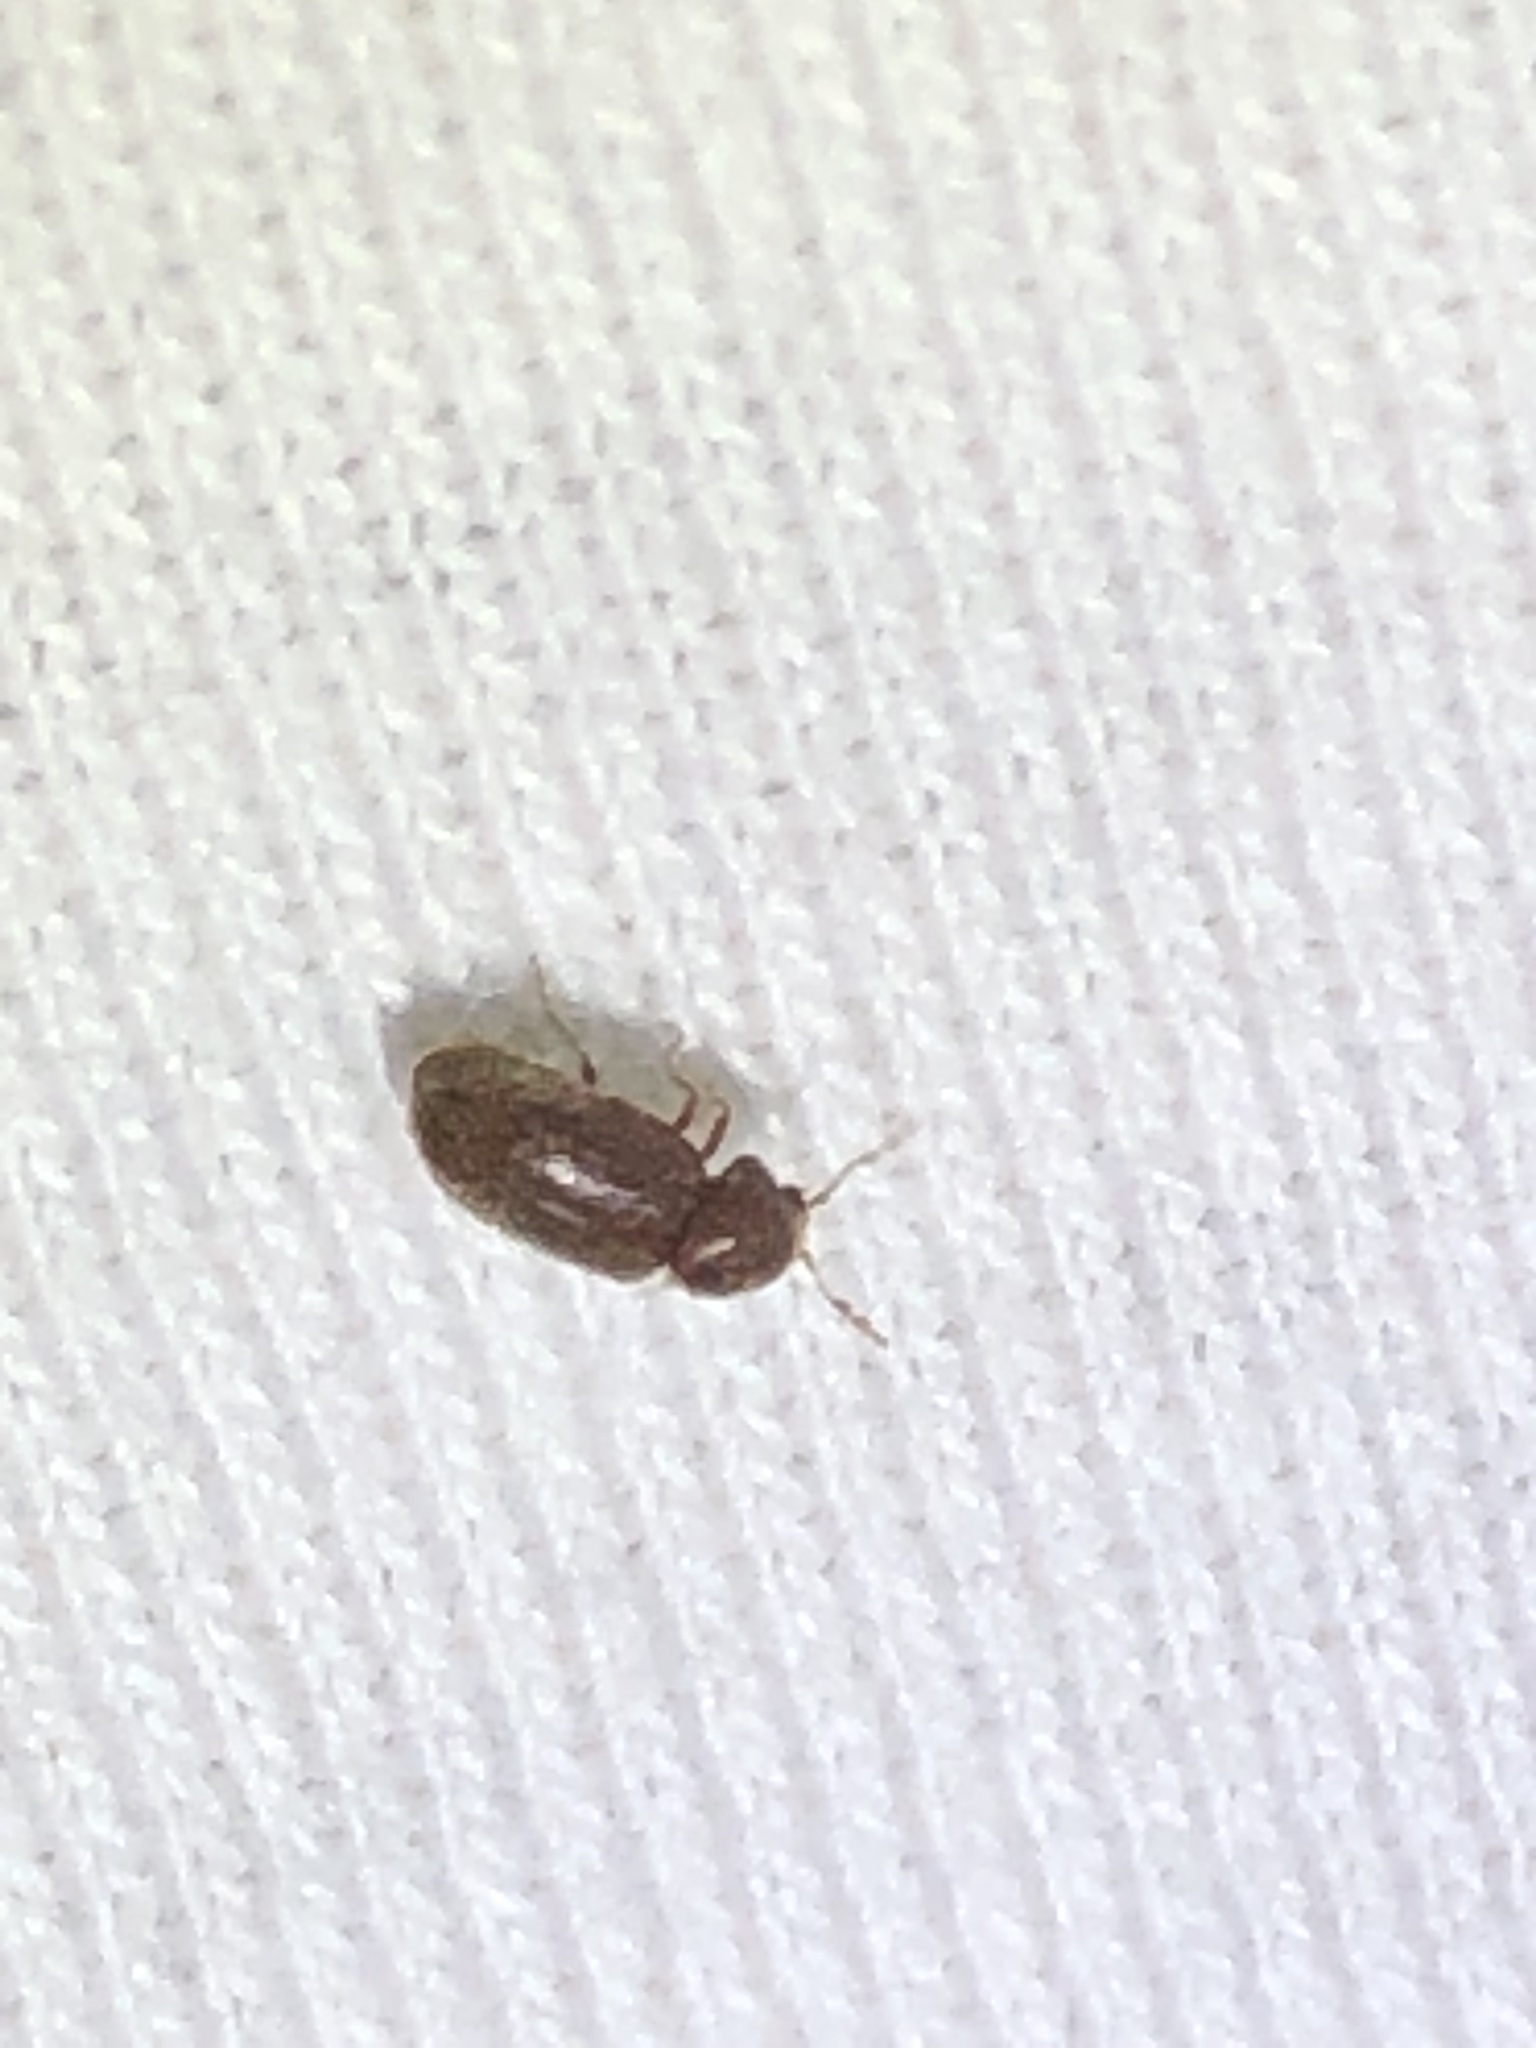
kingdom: Animalia
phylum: Arthropoda
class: Insecta
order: Coleoptera
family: Anobiidae
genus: Stegobium
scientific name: Stegobium paniceum
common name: Drugstore beetle
